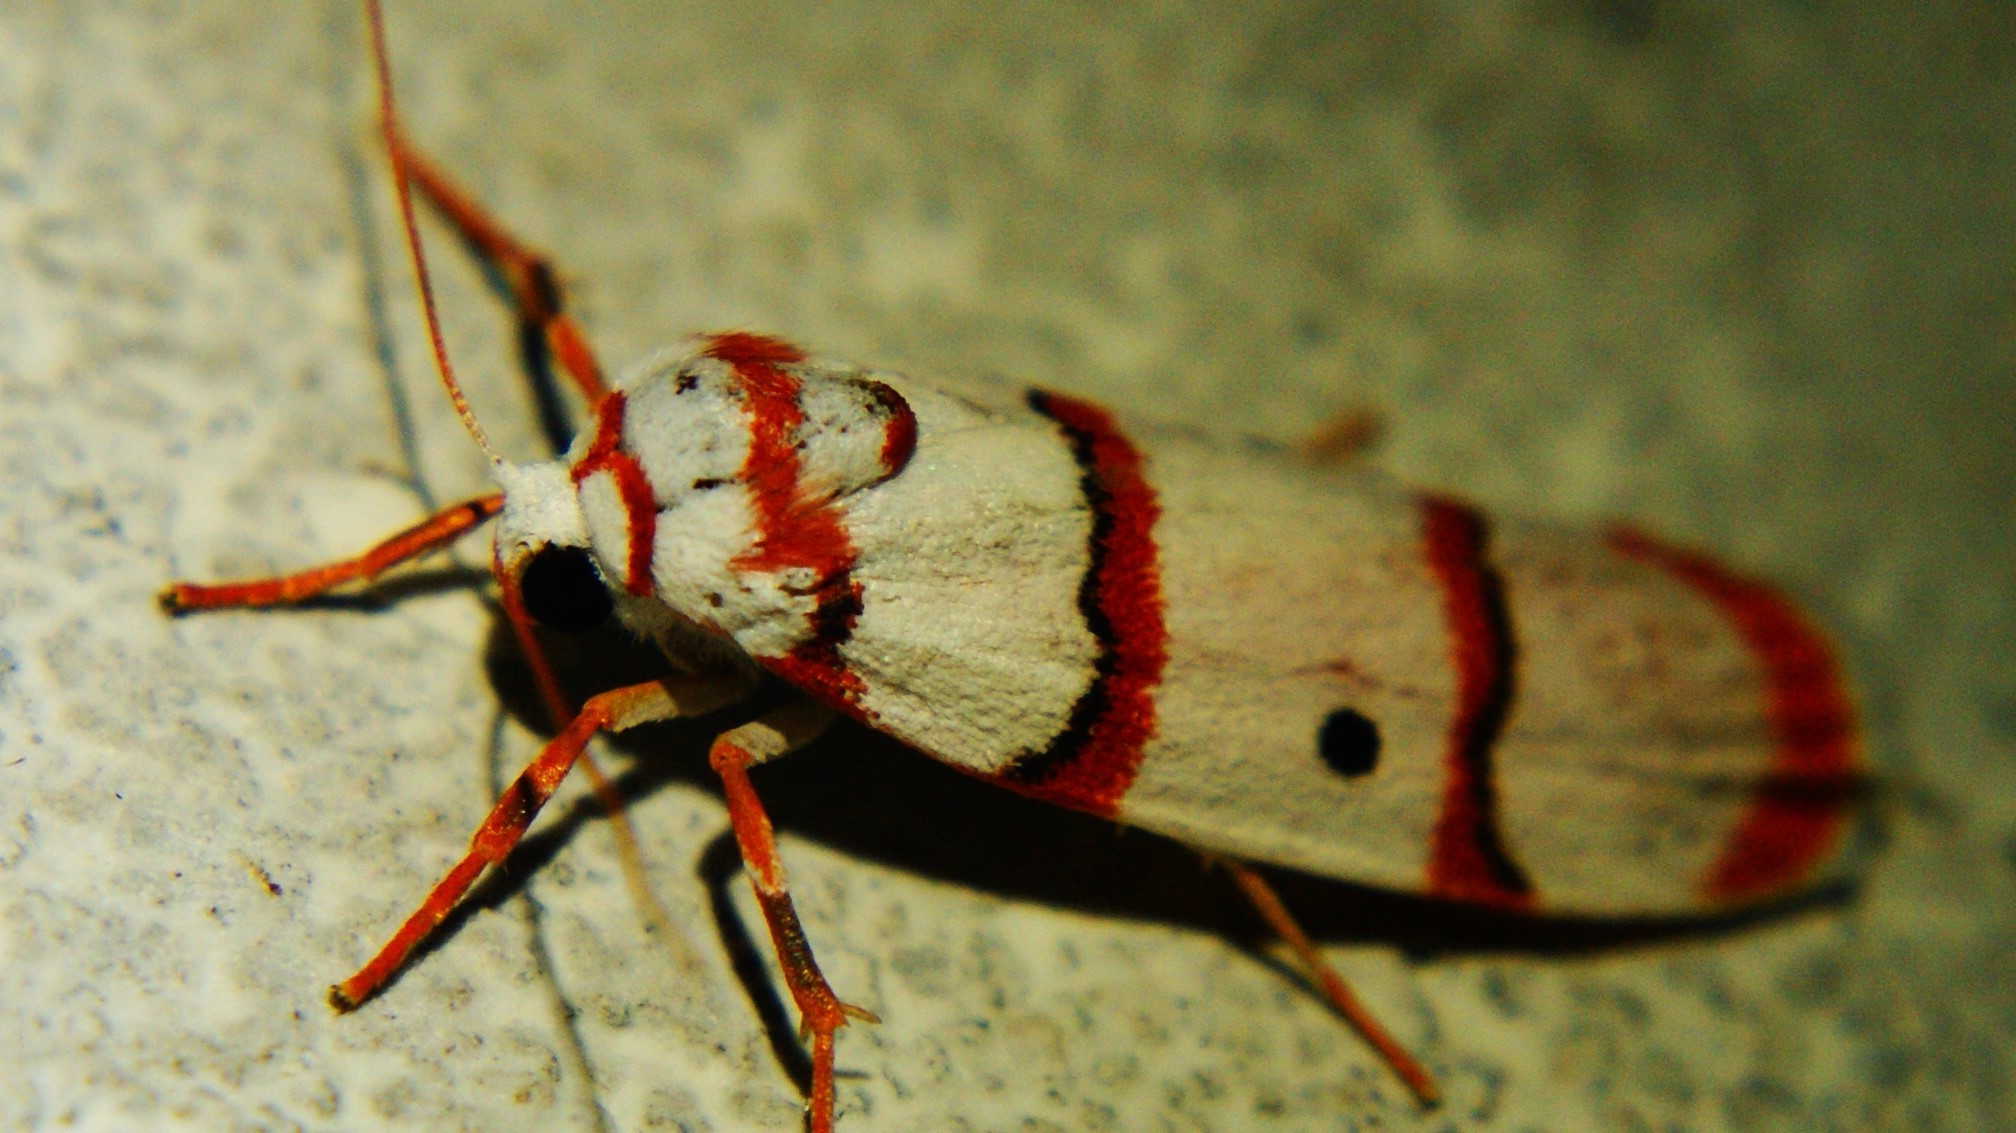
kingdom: Animalia
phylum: Arthropoda
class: Insecta
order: Lepidoptera
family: Erebidae
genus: Cyana
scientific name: Cyana peregrina
